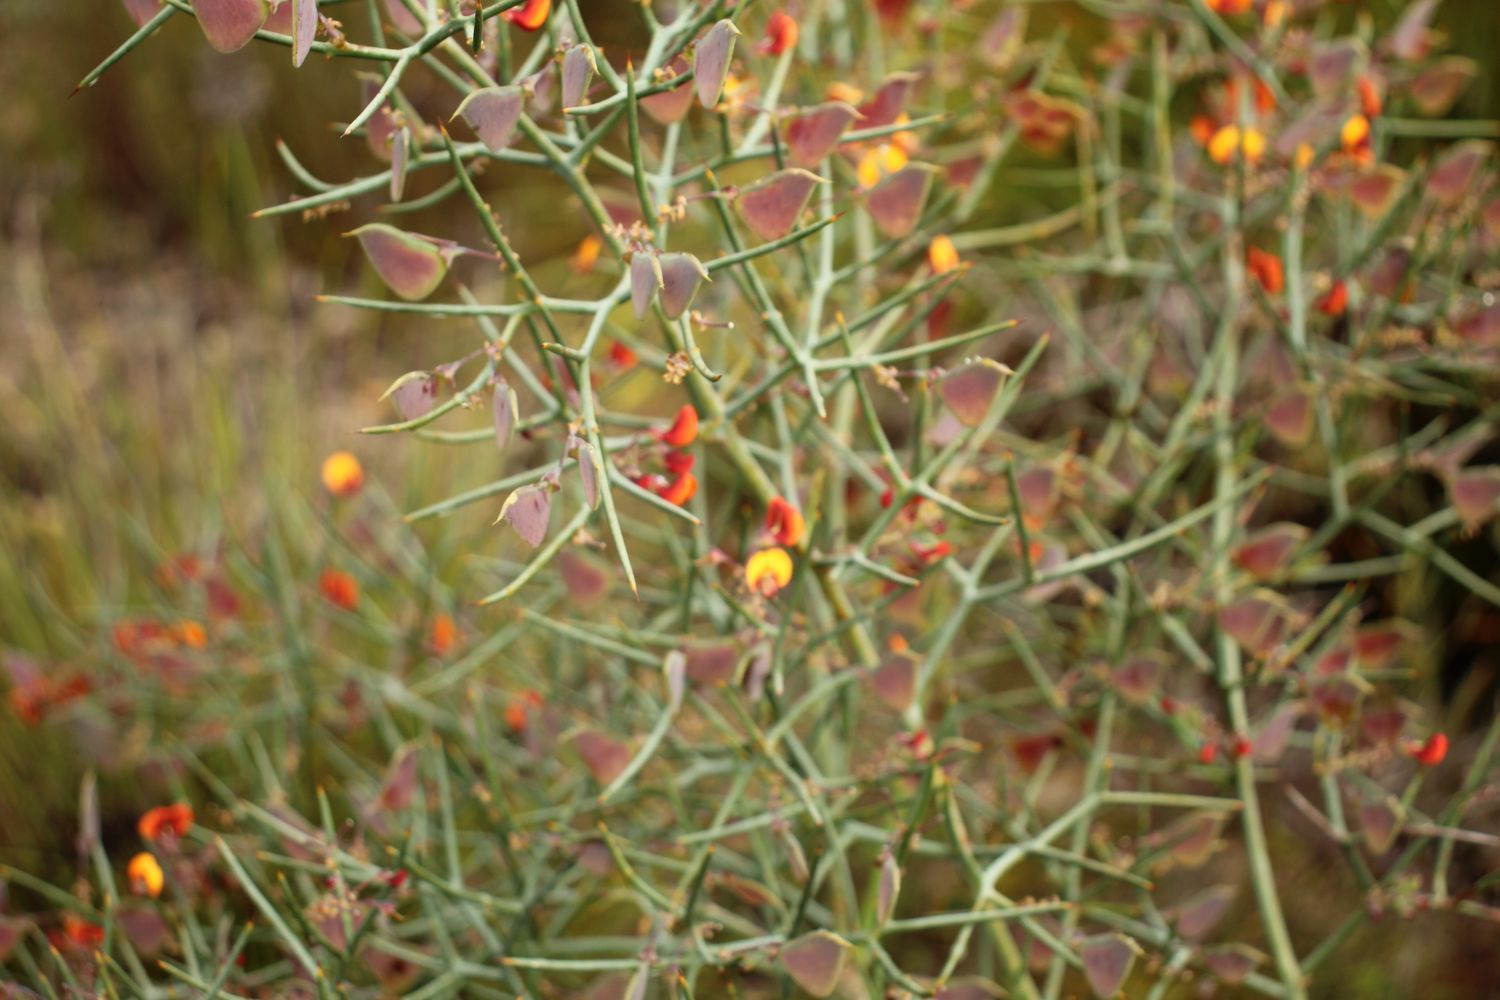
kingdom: Plantae
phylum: Tracheophyta
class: Magnoliopsida
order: Fabales
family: Fabaceae
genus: Daviesia
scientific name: Daviesia horrida
